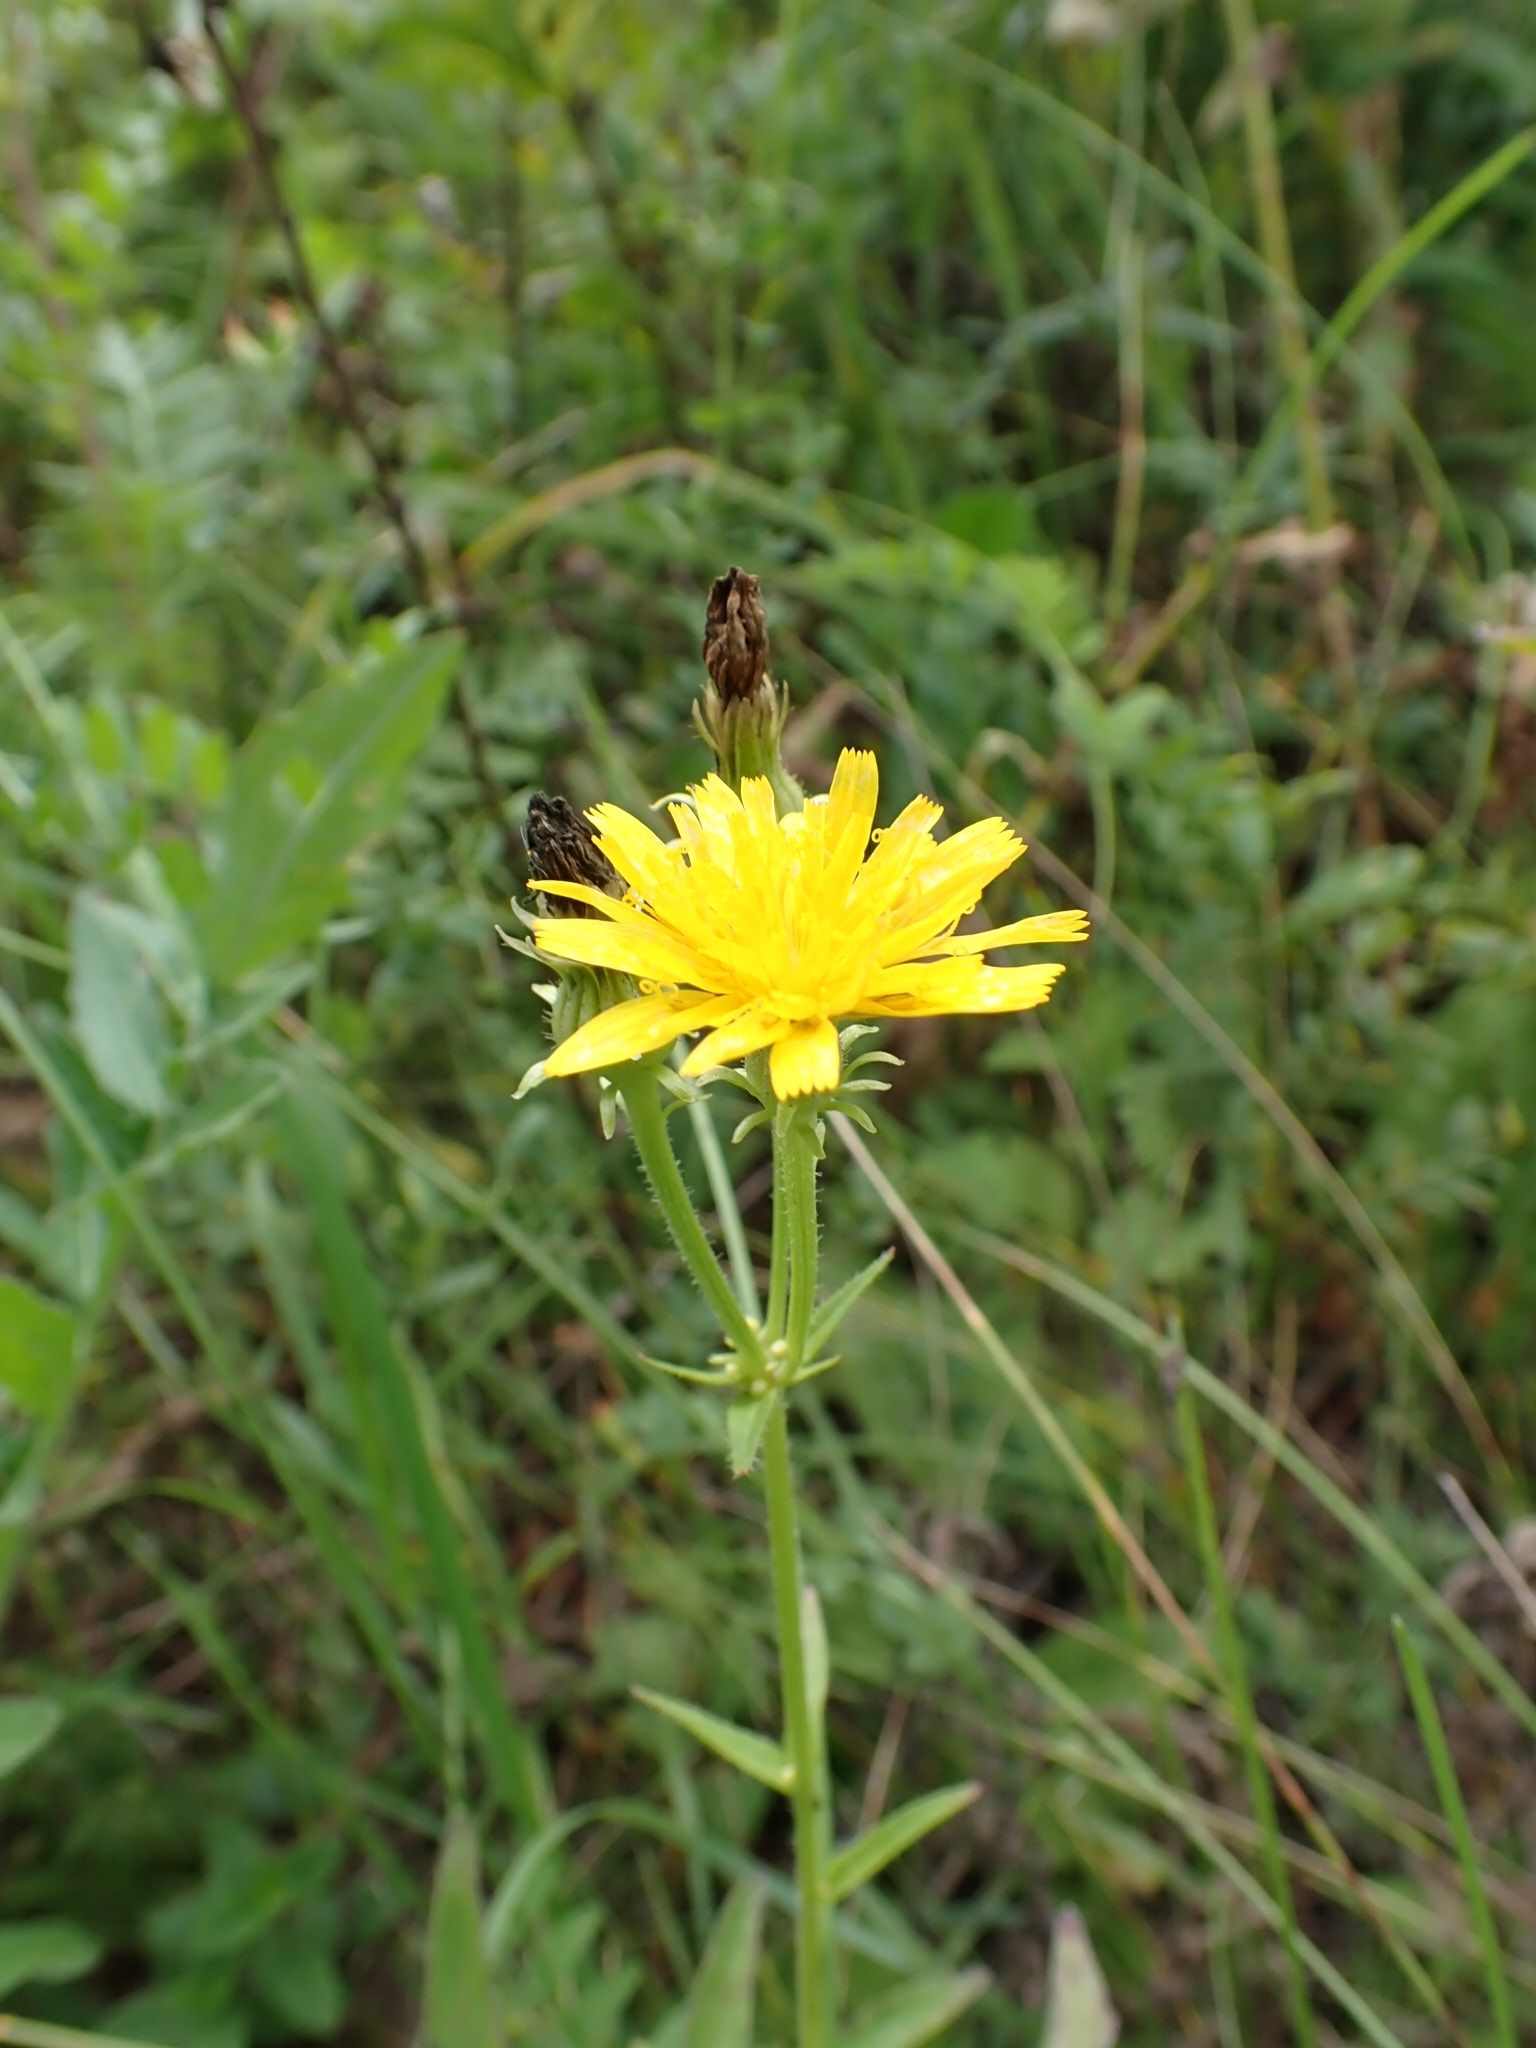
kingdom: Plantae
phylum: Tracheophyta
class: Magnoliopsida
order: Asterales
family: Asteraceae
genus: Picris
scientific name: Picris hieracioides
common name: Hawkweed oxtongue
